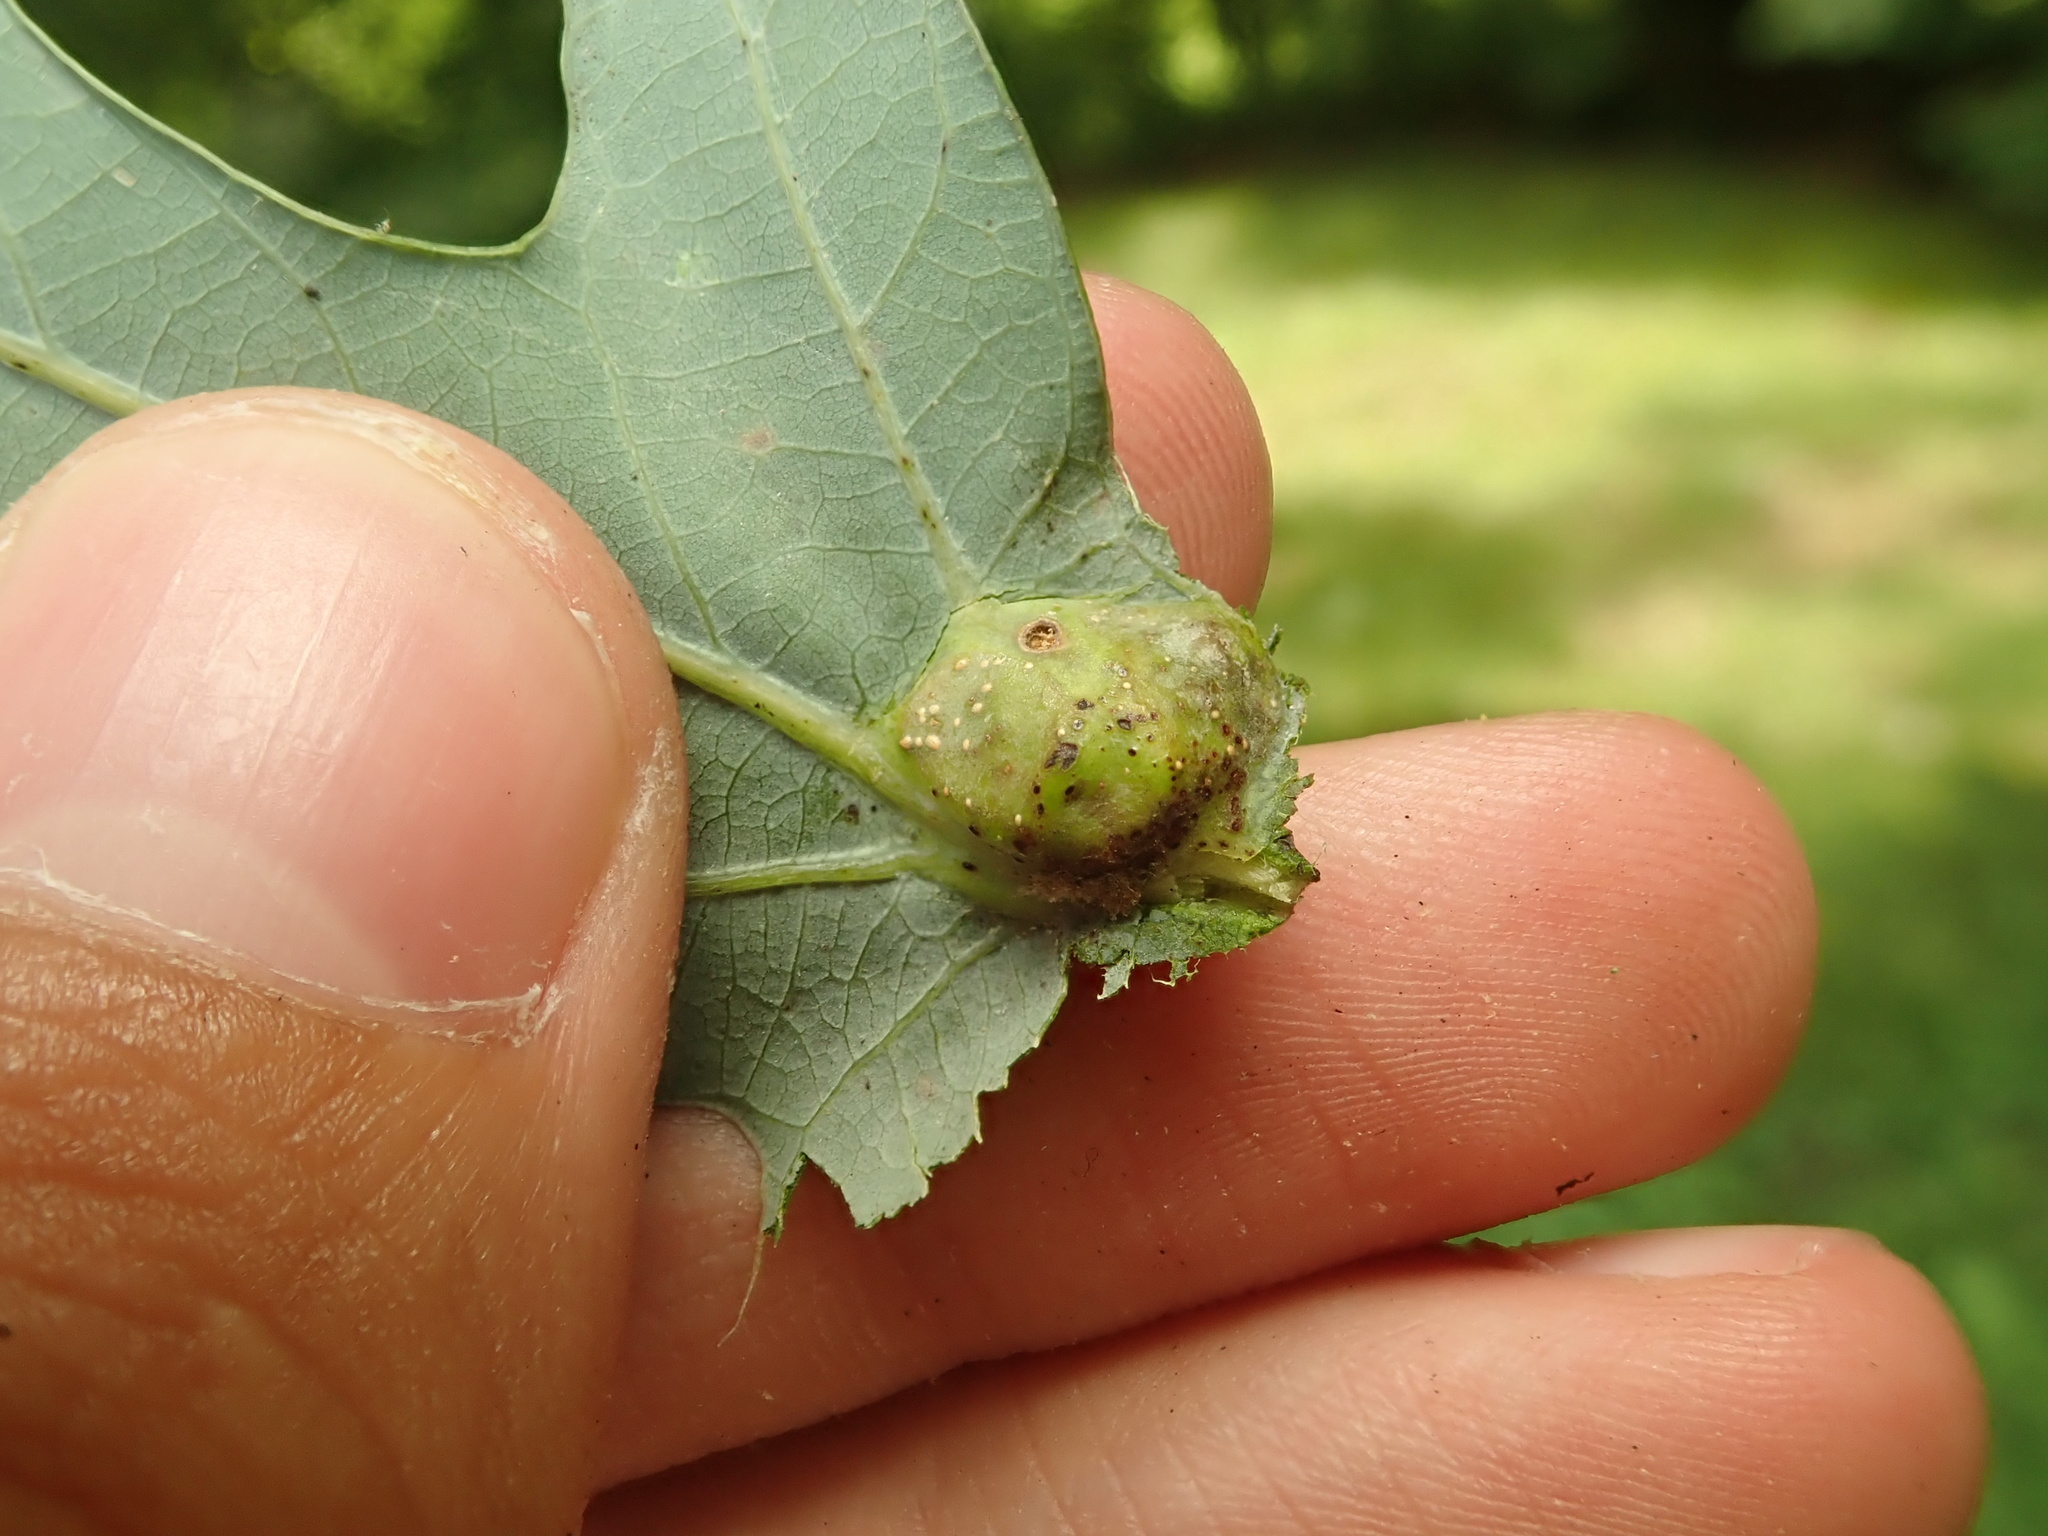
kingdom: Animalia
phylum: Arthropoda
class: Insecta
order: Hymenoptera
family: Cynipidae
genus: Andricus
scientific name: Andricus
